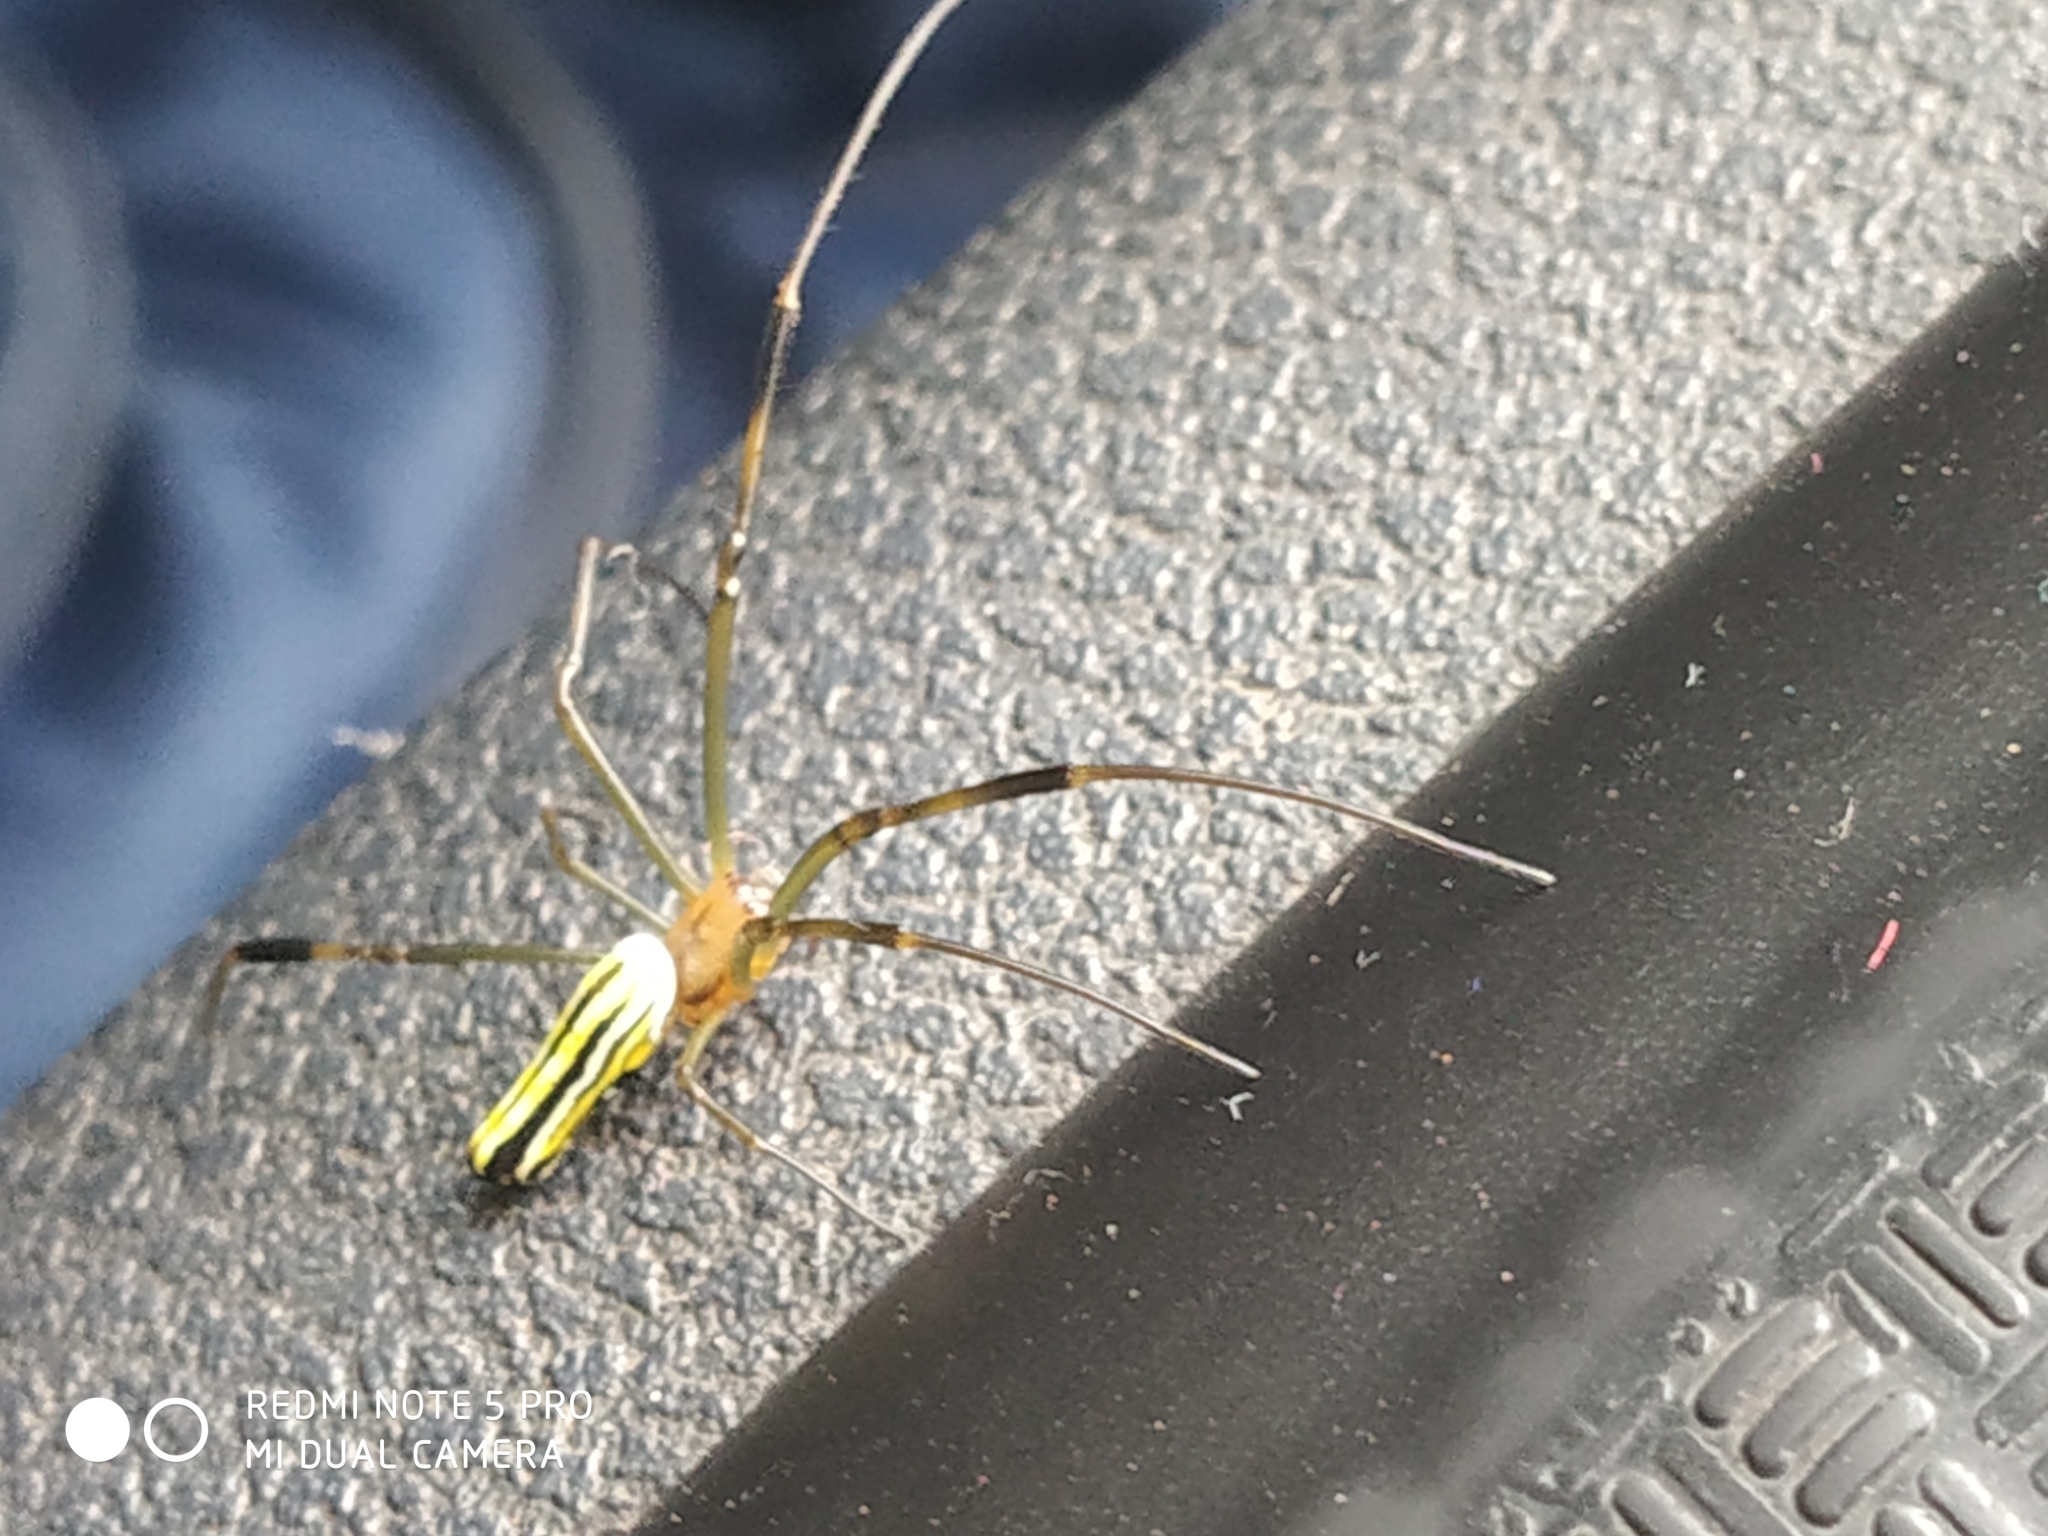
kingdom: Animalia
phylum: Arthropoda
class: Arachnida
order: Araneae
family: Araneidae
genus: Nephila
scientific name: Nephila pilipes
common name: Giant golden orb weaver
